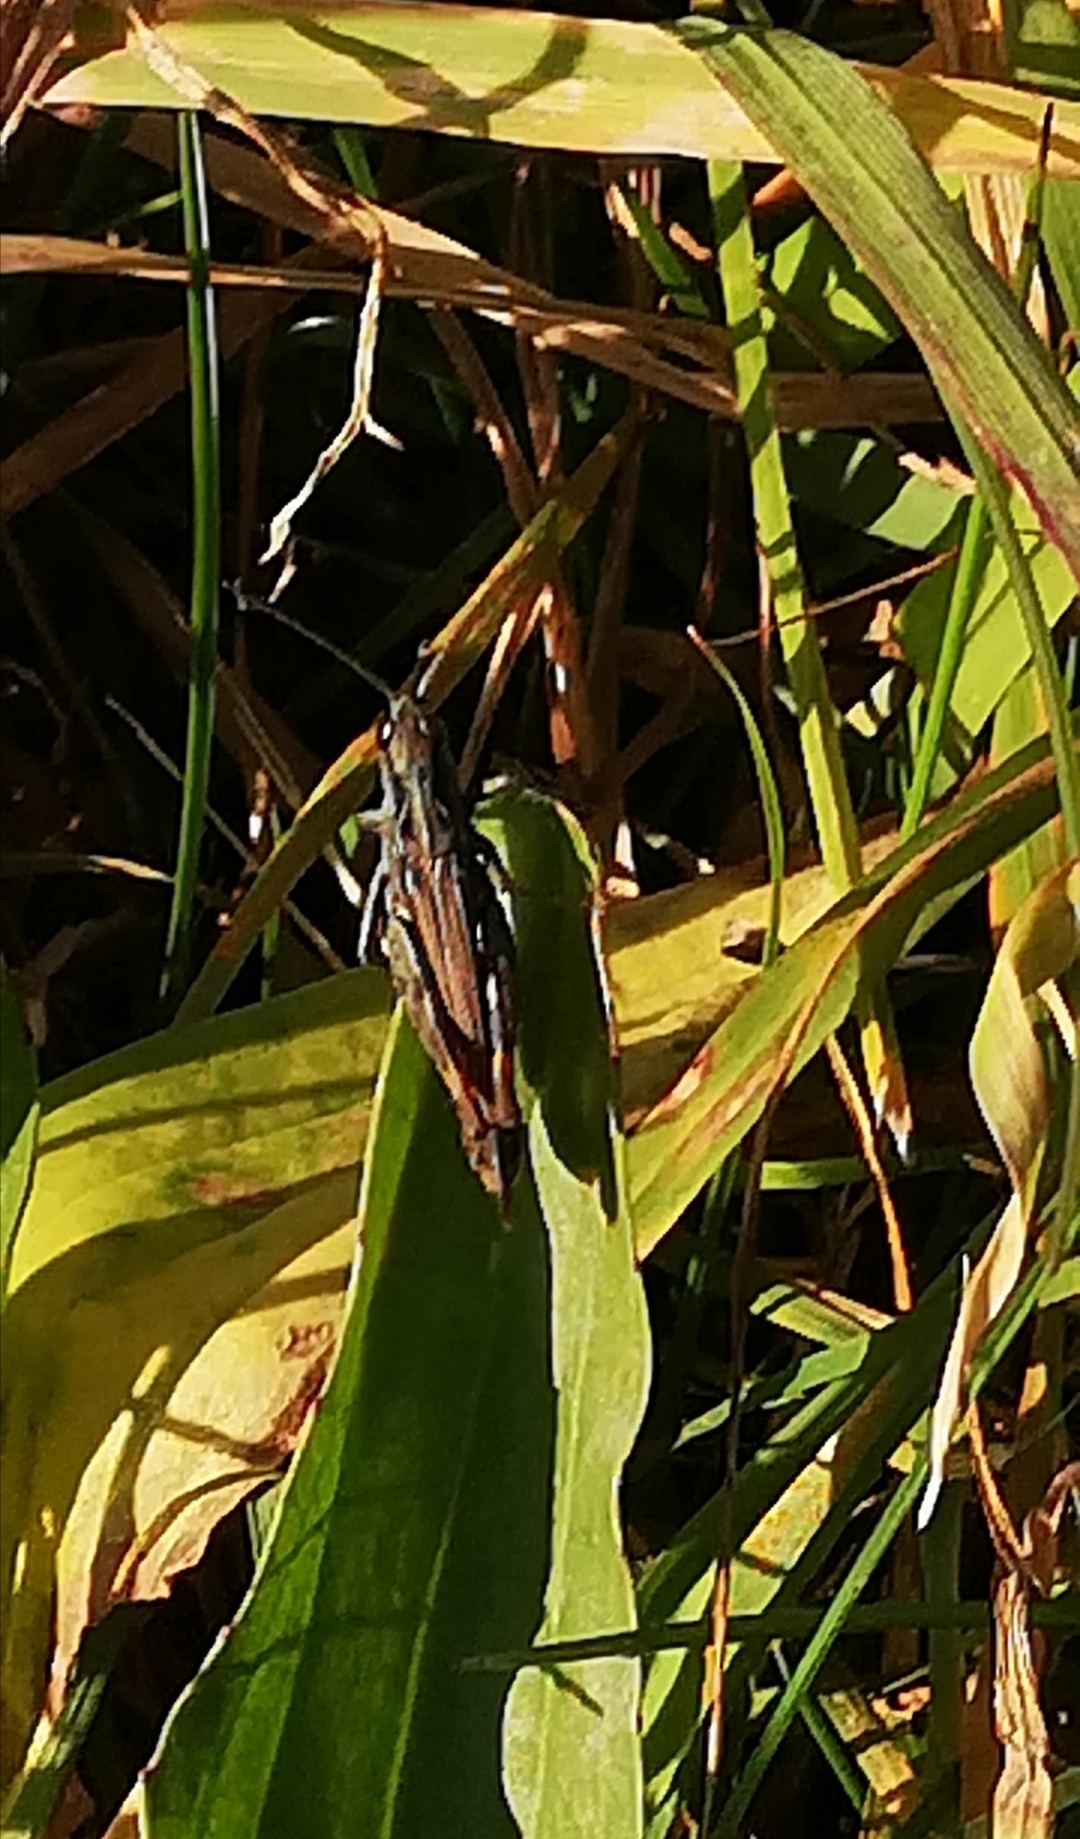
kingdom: Animalia
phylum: Arthropoda
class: Insecta
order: Orthoptera
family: Acrididae
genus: Chorthippus
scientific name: Chorthippus biguttulus
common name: Bow-winged grasshopper
